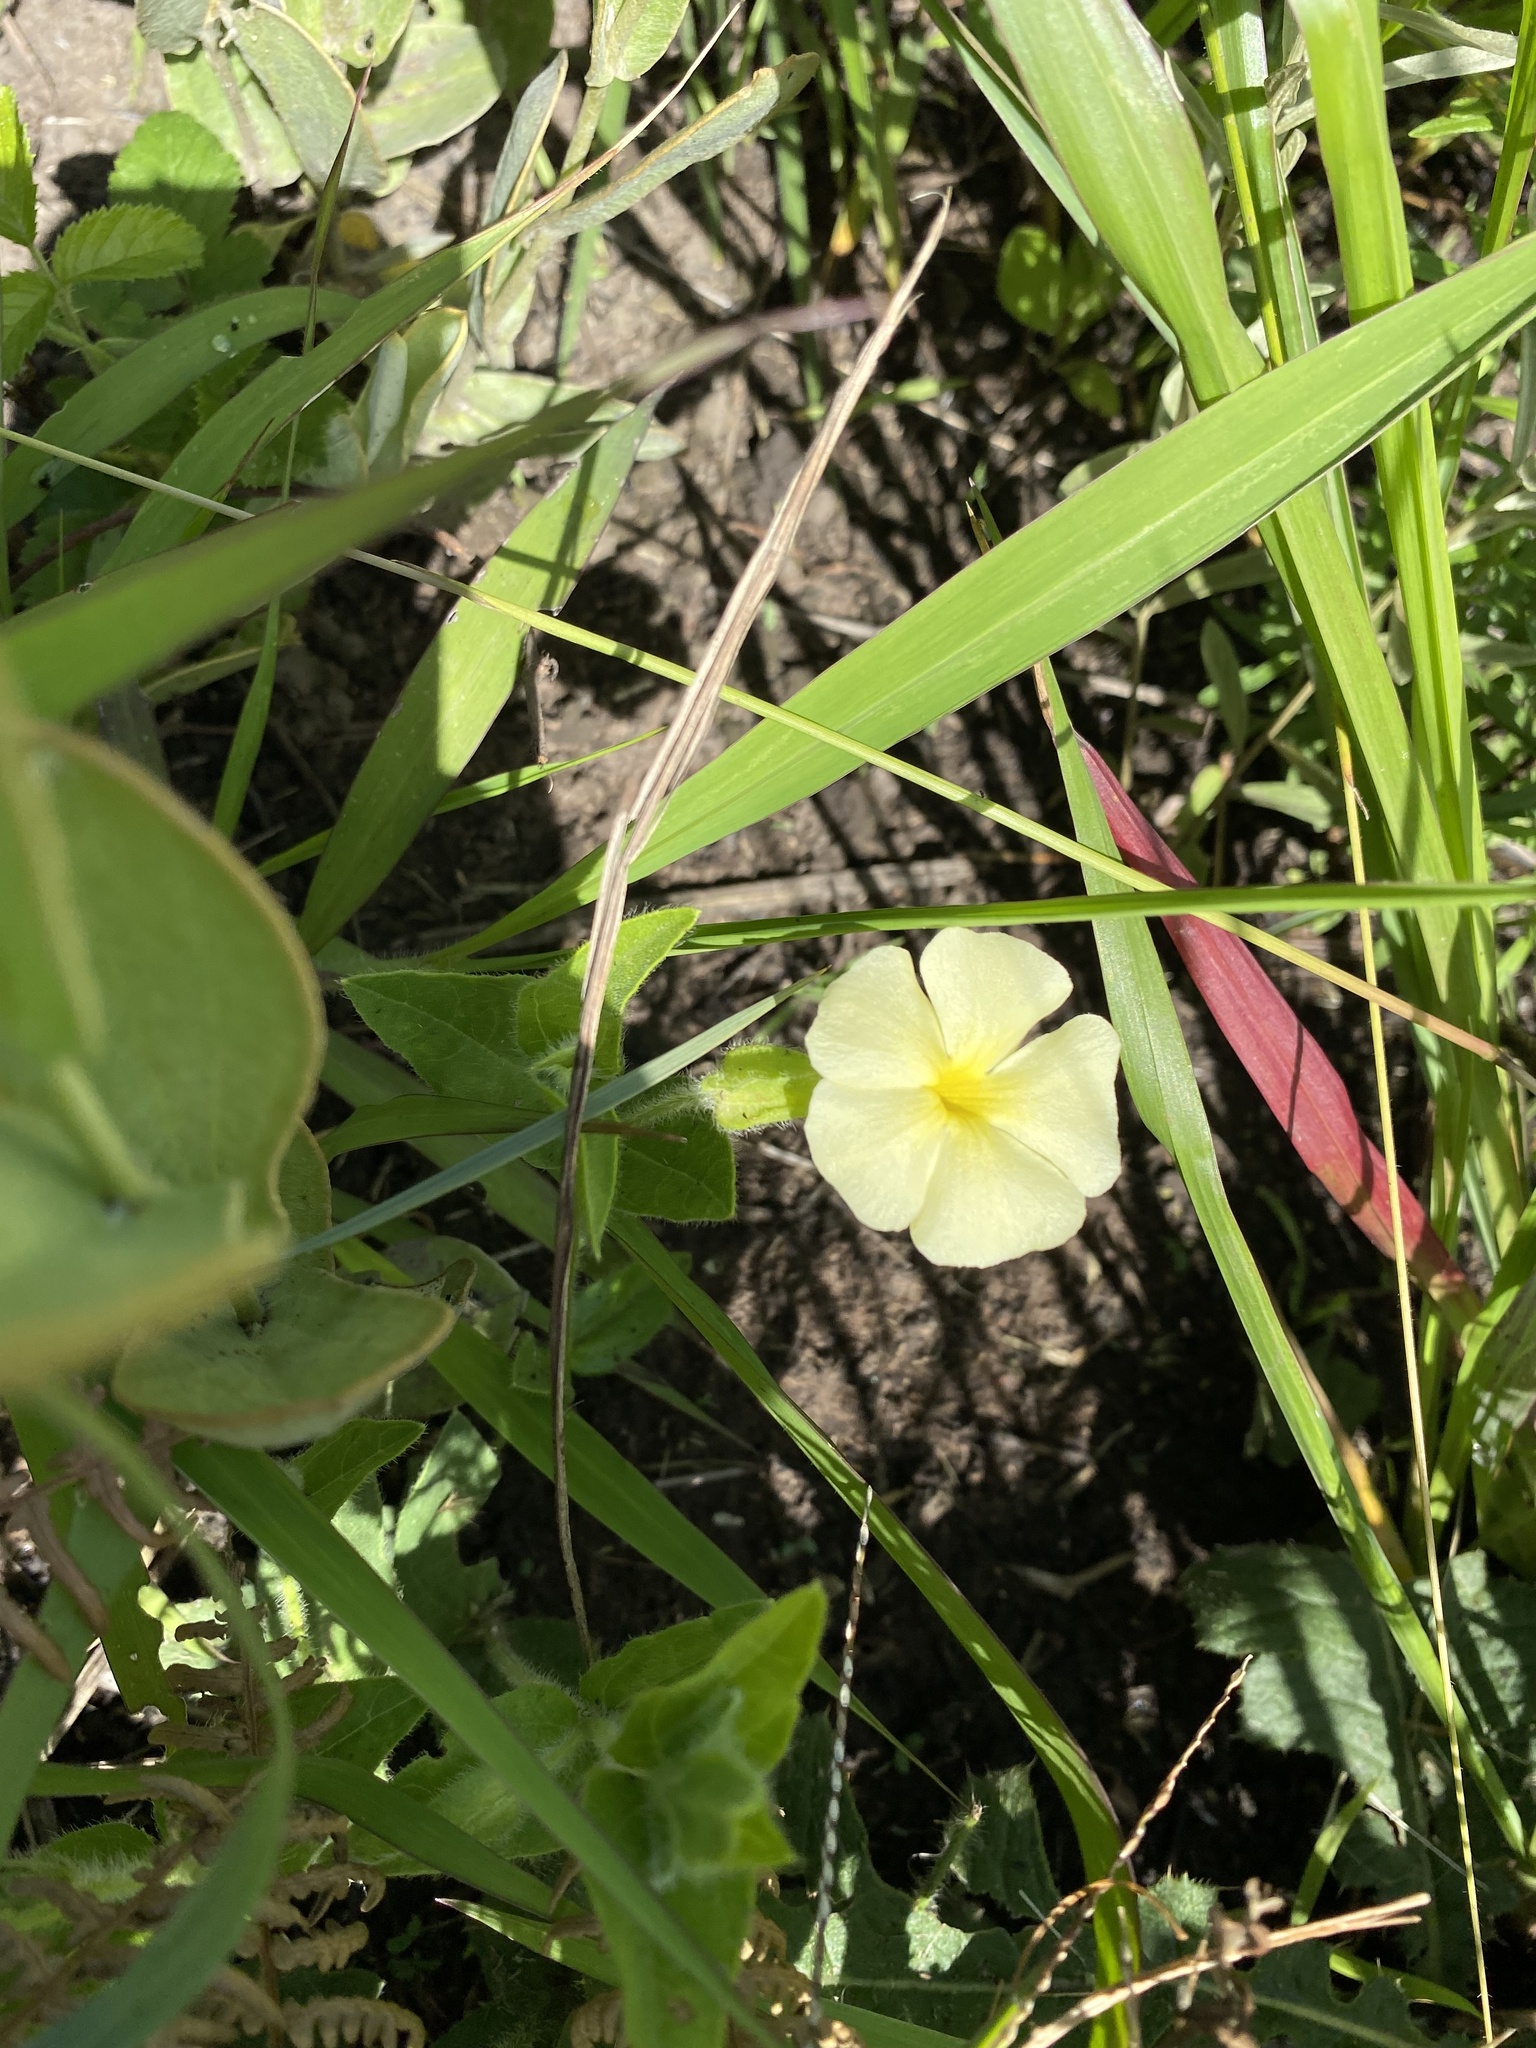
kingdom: Plantae
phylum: Tracheophyta
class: Magnoliopsida
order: Lamiales
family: Acanthaceae
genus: Thunbergia
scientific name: Thunbergia atriplicifolia
